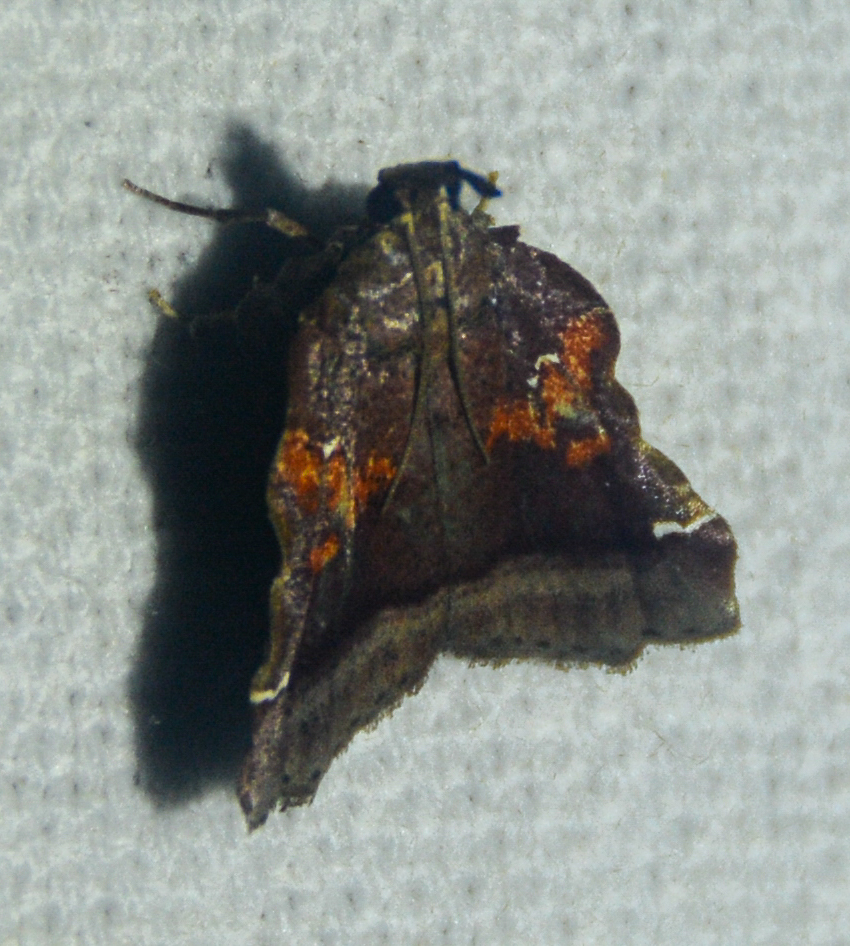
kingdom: Animalia
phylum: Arthropoda
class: Insecta
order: Lepidoptera
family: Pyralidae
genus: Clydonopteron
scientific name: Clydonopteron sacculana
